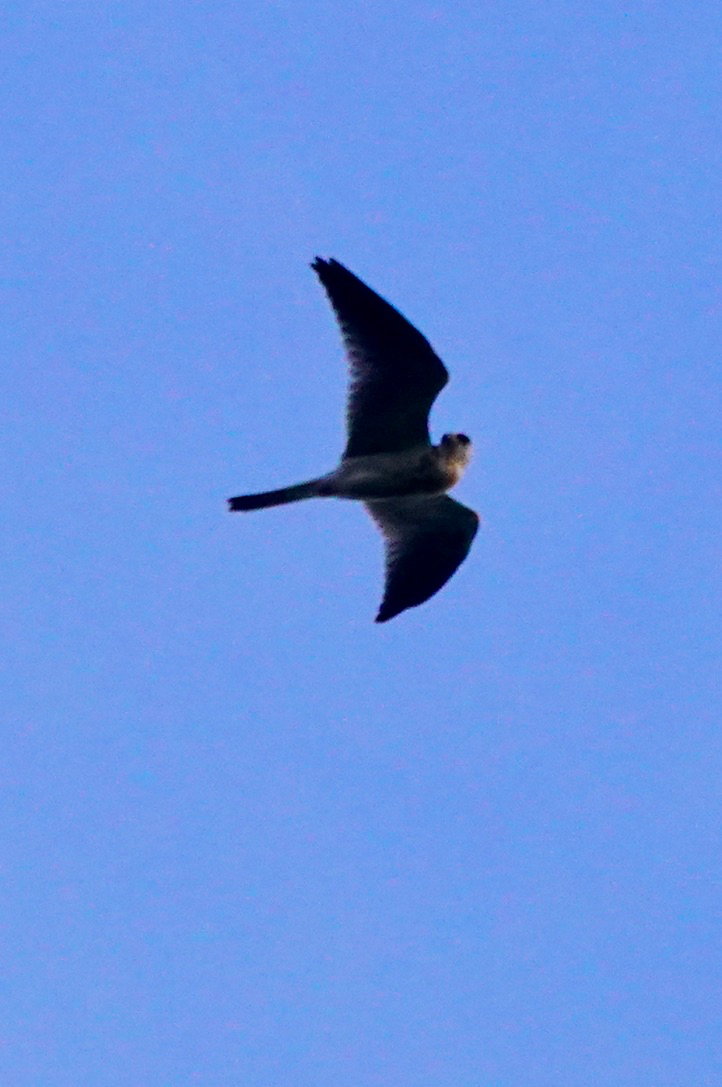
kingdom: Animalia
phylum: Chordata
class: Aves
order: Accipitriformes
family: Accipitridae
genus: Elanus
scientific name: Elanus leucurus
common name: White-tailed kite
